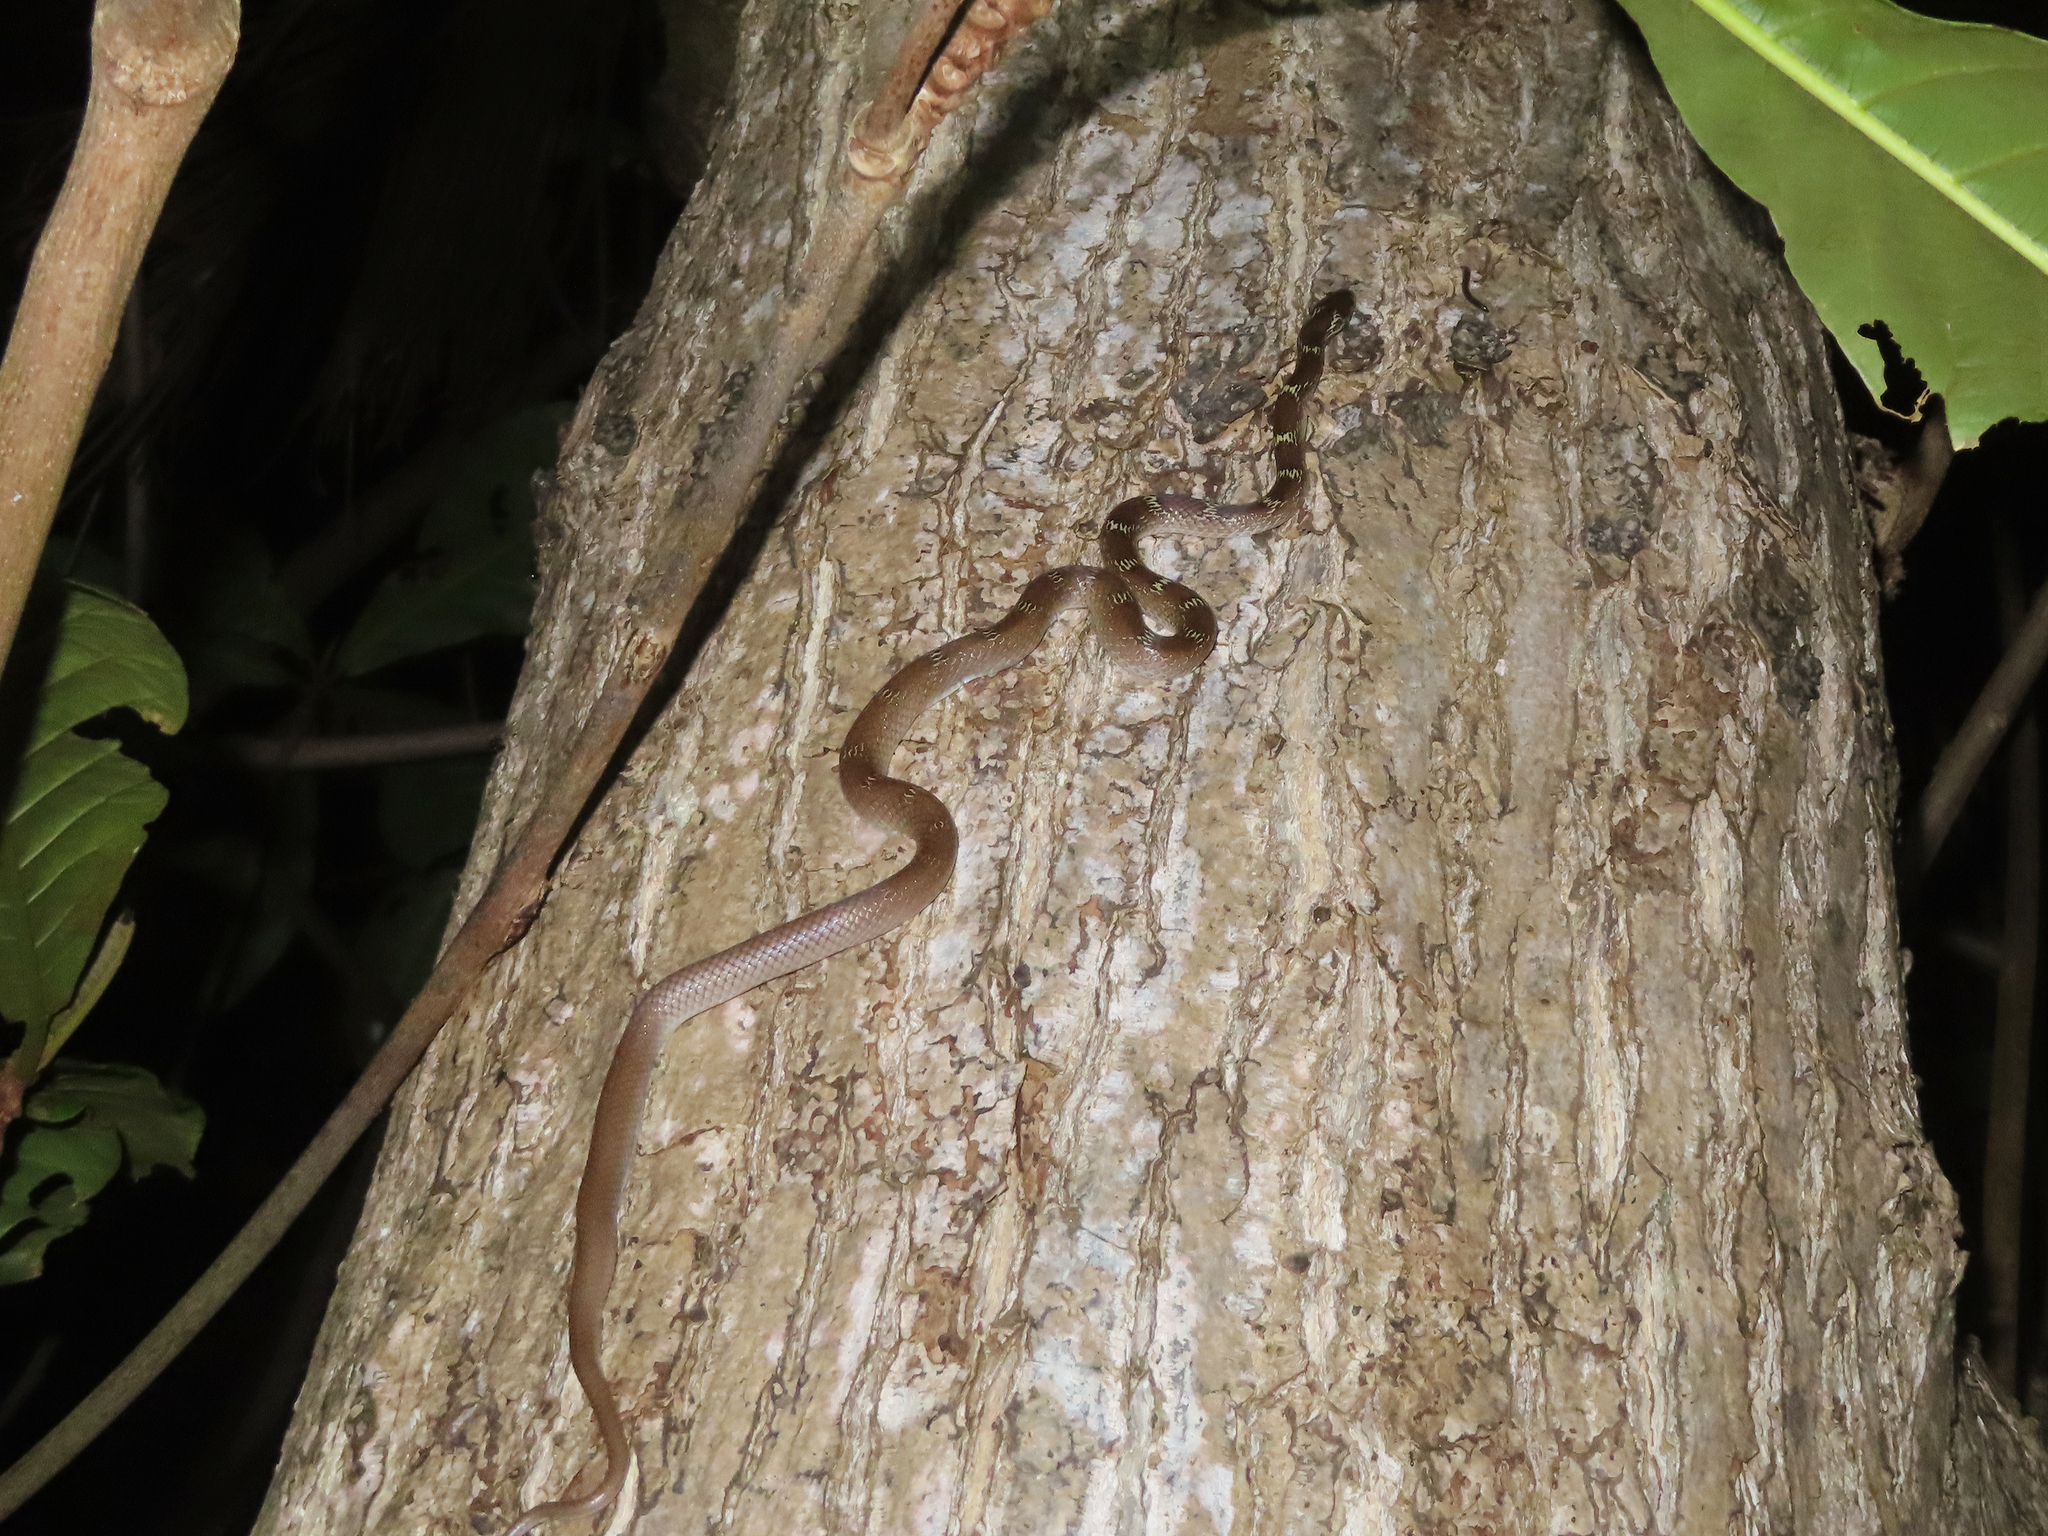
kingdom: Animalia
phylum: Chordata
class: Squamata
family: Colubridae
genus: Lycodon
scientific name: Lycodon aulicus
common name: Common wolf snake
